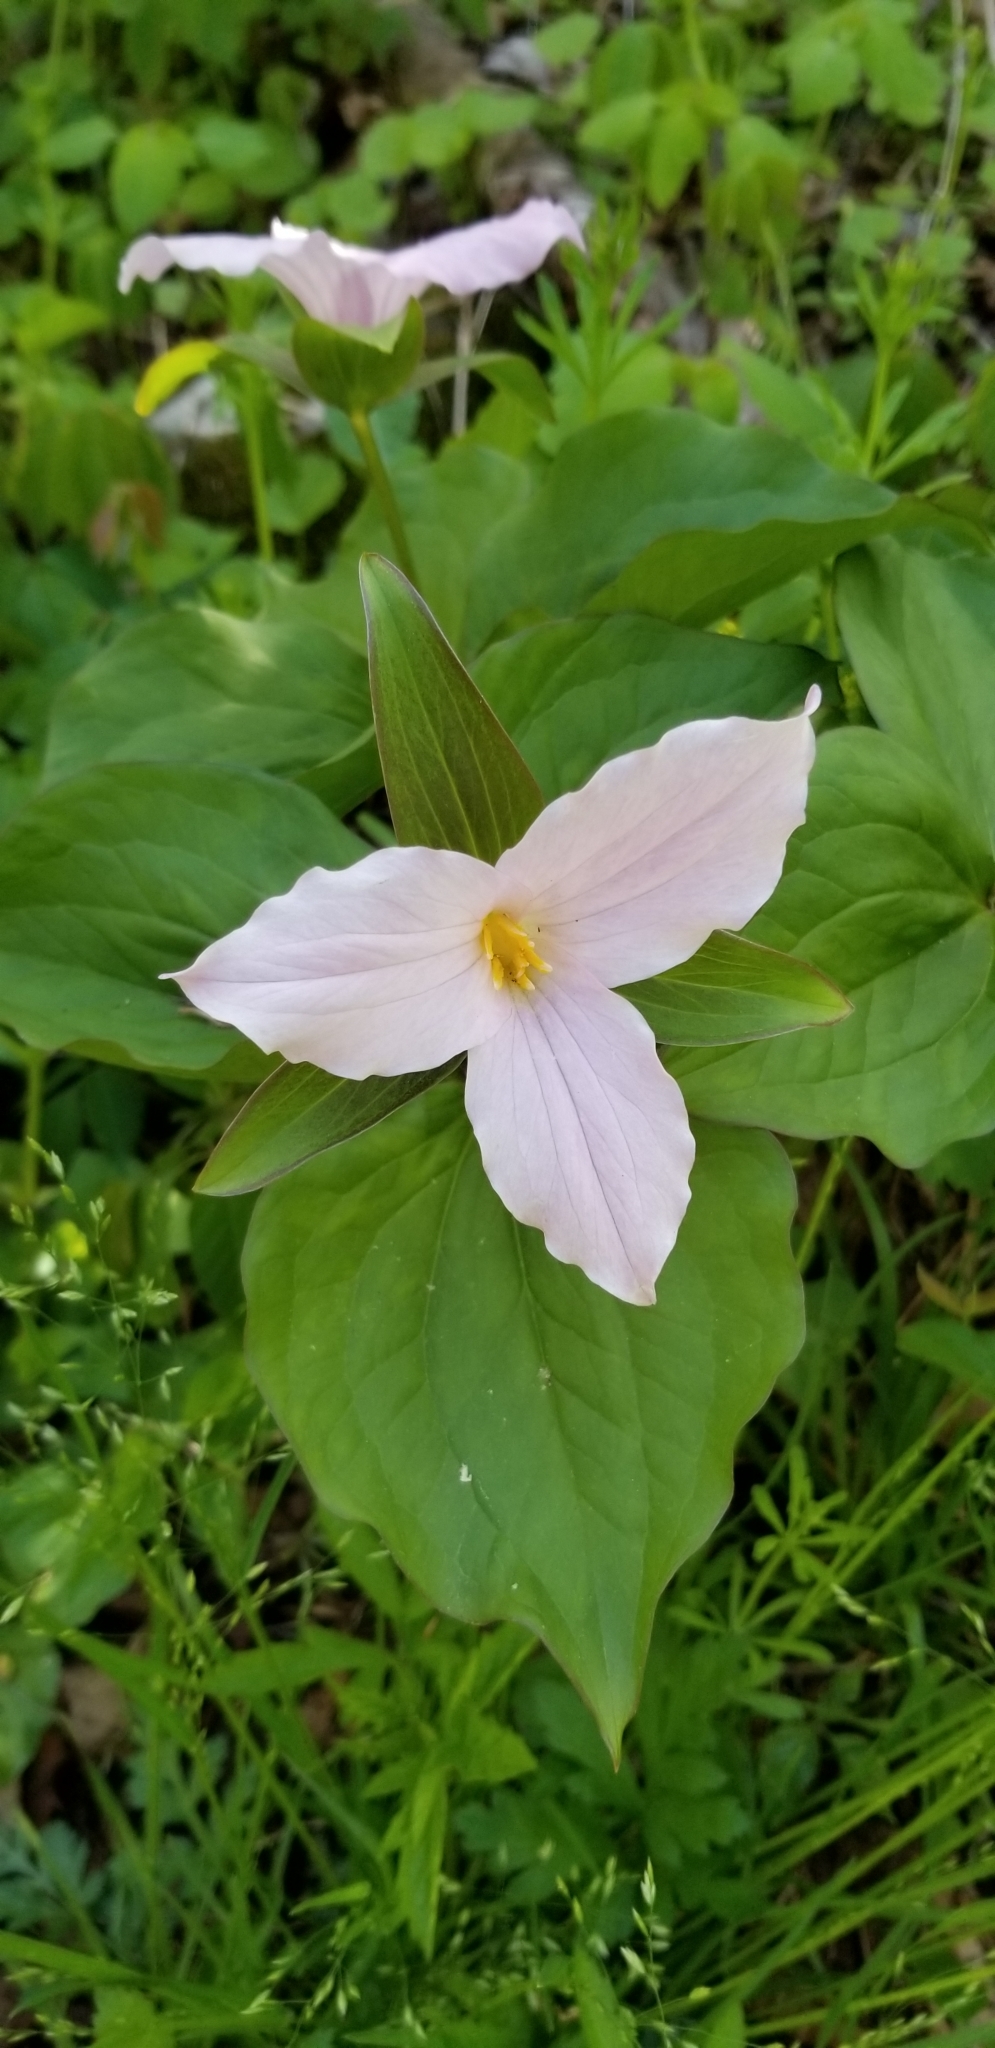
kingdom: Plantae
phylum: Tracheophyta
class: Liliopsida
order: Liliales
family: Melanthiaceae
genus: Trillium
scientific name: Trillium grandiflorum
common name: Great white trillium
